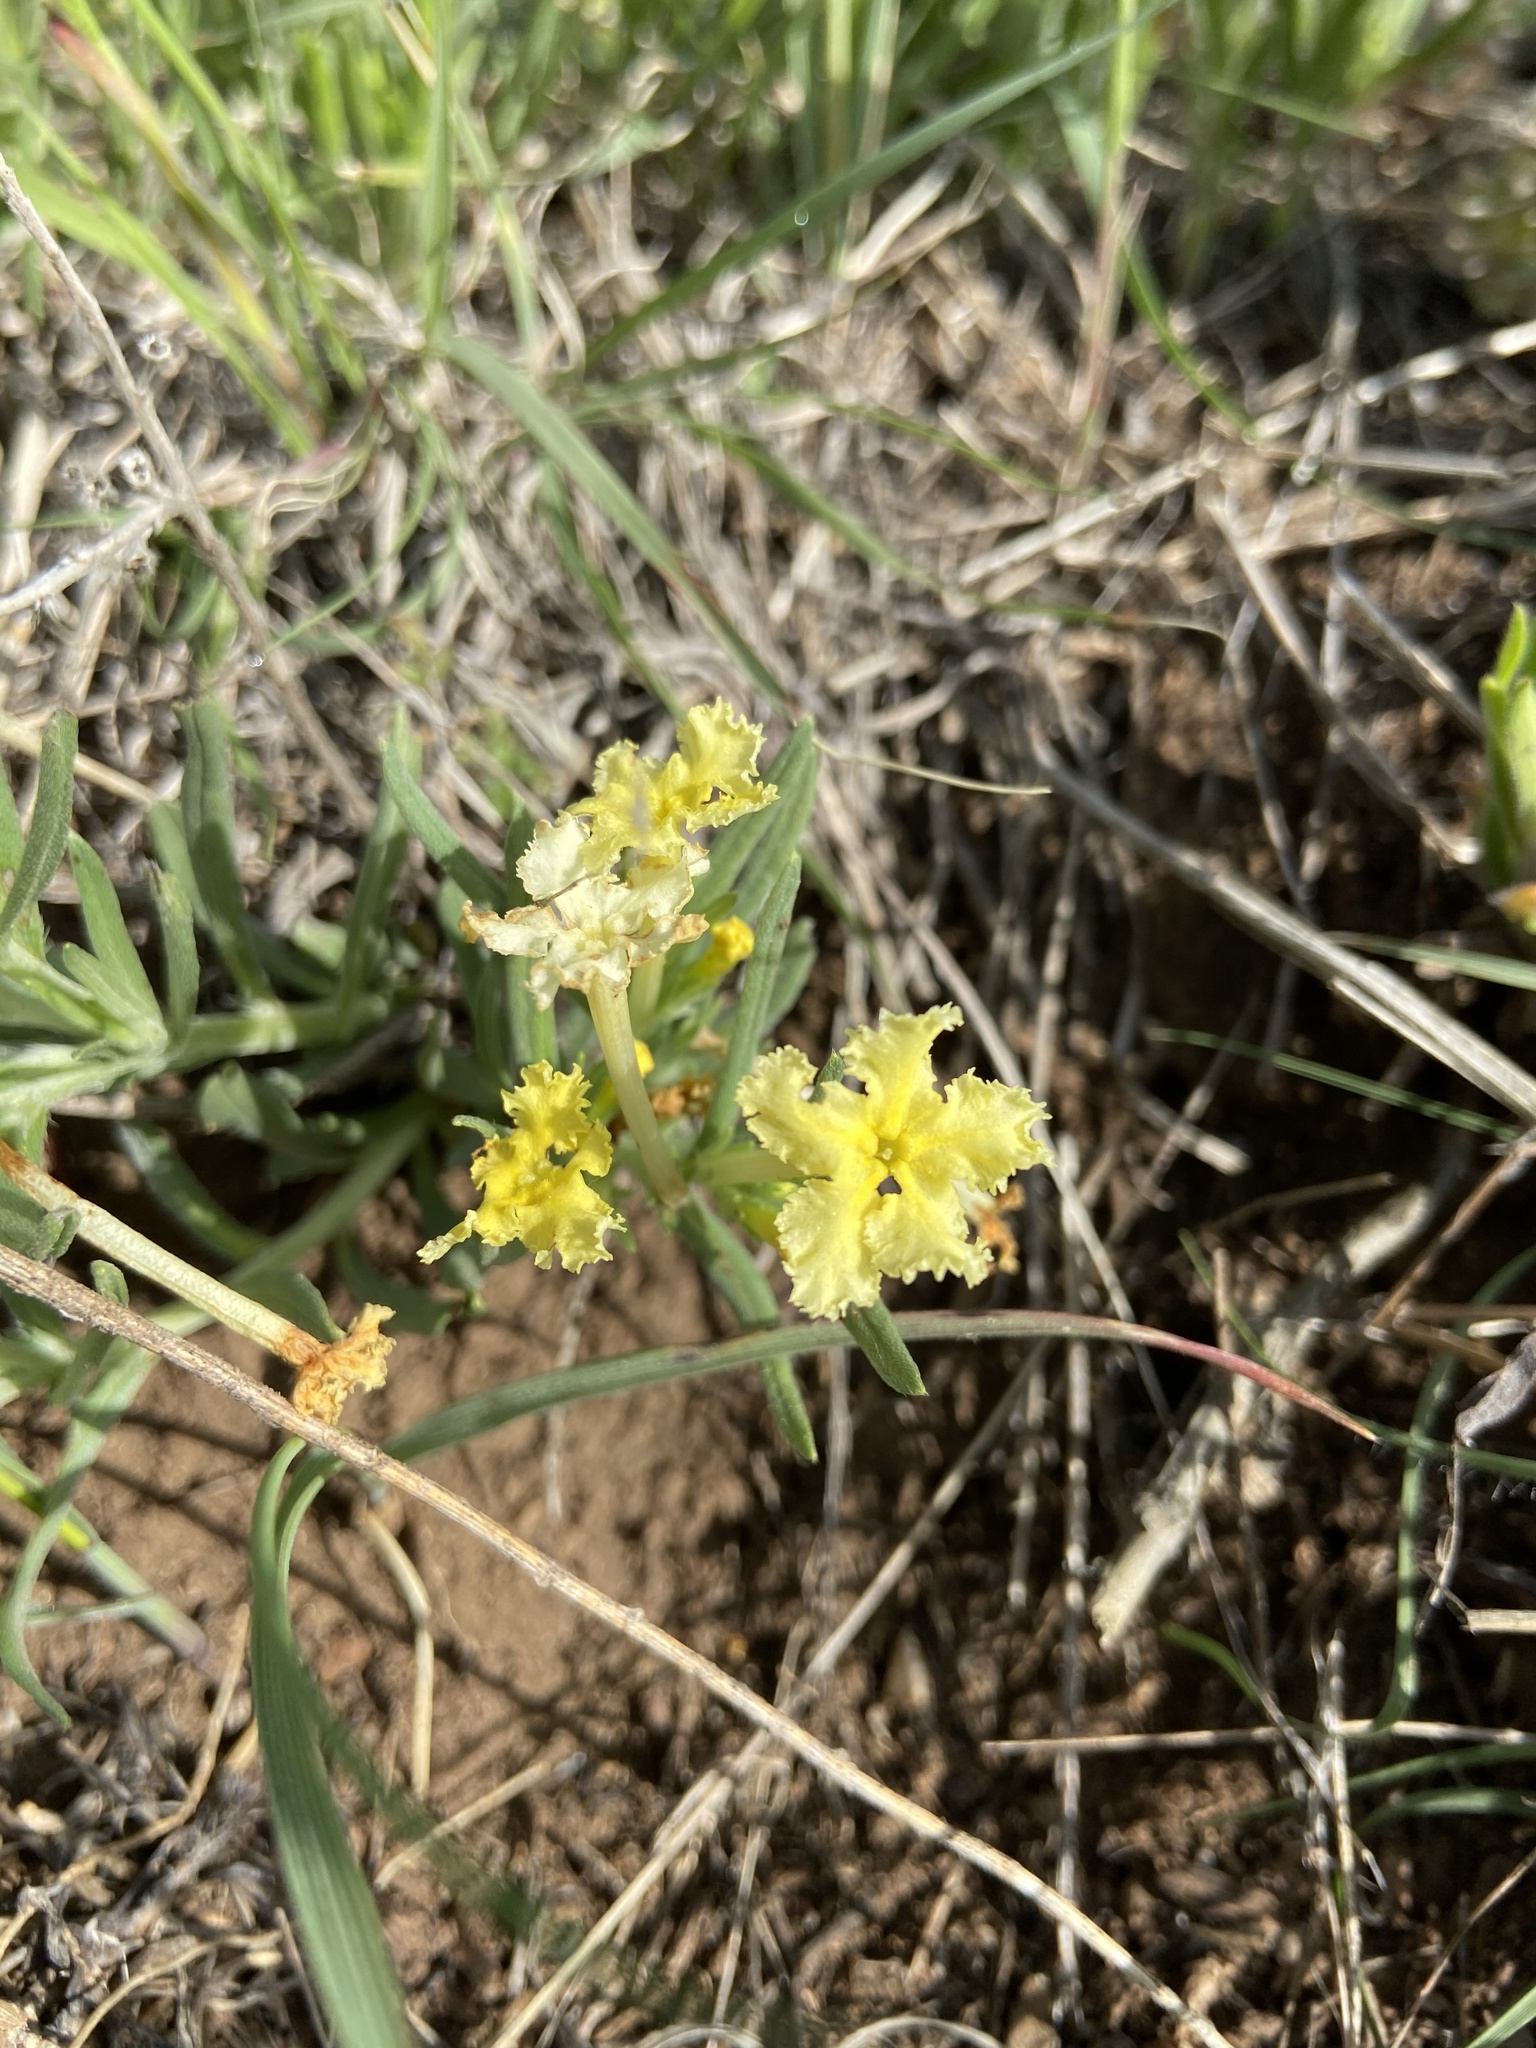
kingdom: Plantae
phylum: Tracheophyta
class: Magnoliopsida
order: Boraginales
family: Boraginaceae
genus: Lithospermum
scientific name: Lithospermum incisum
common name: Fringed gromwell
